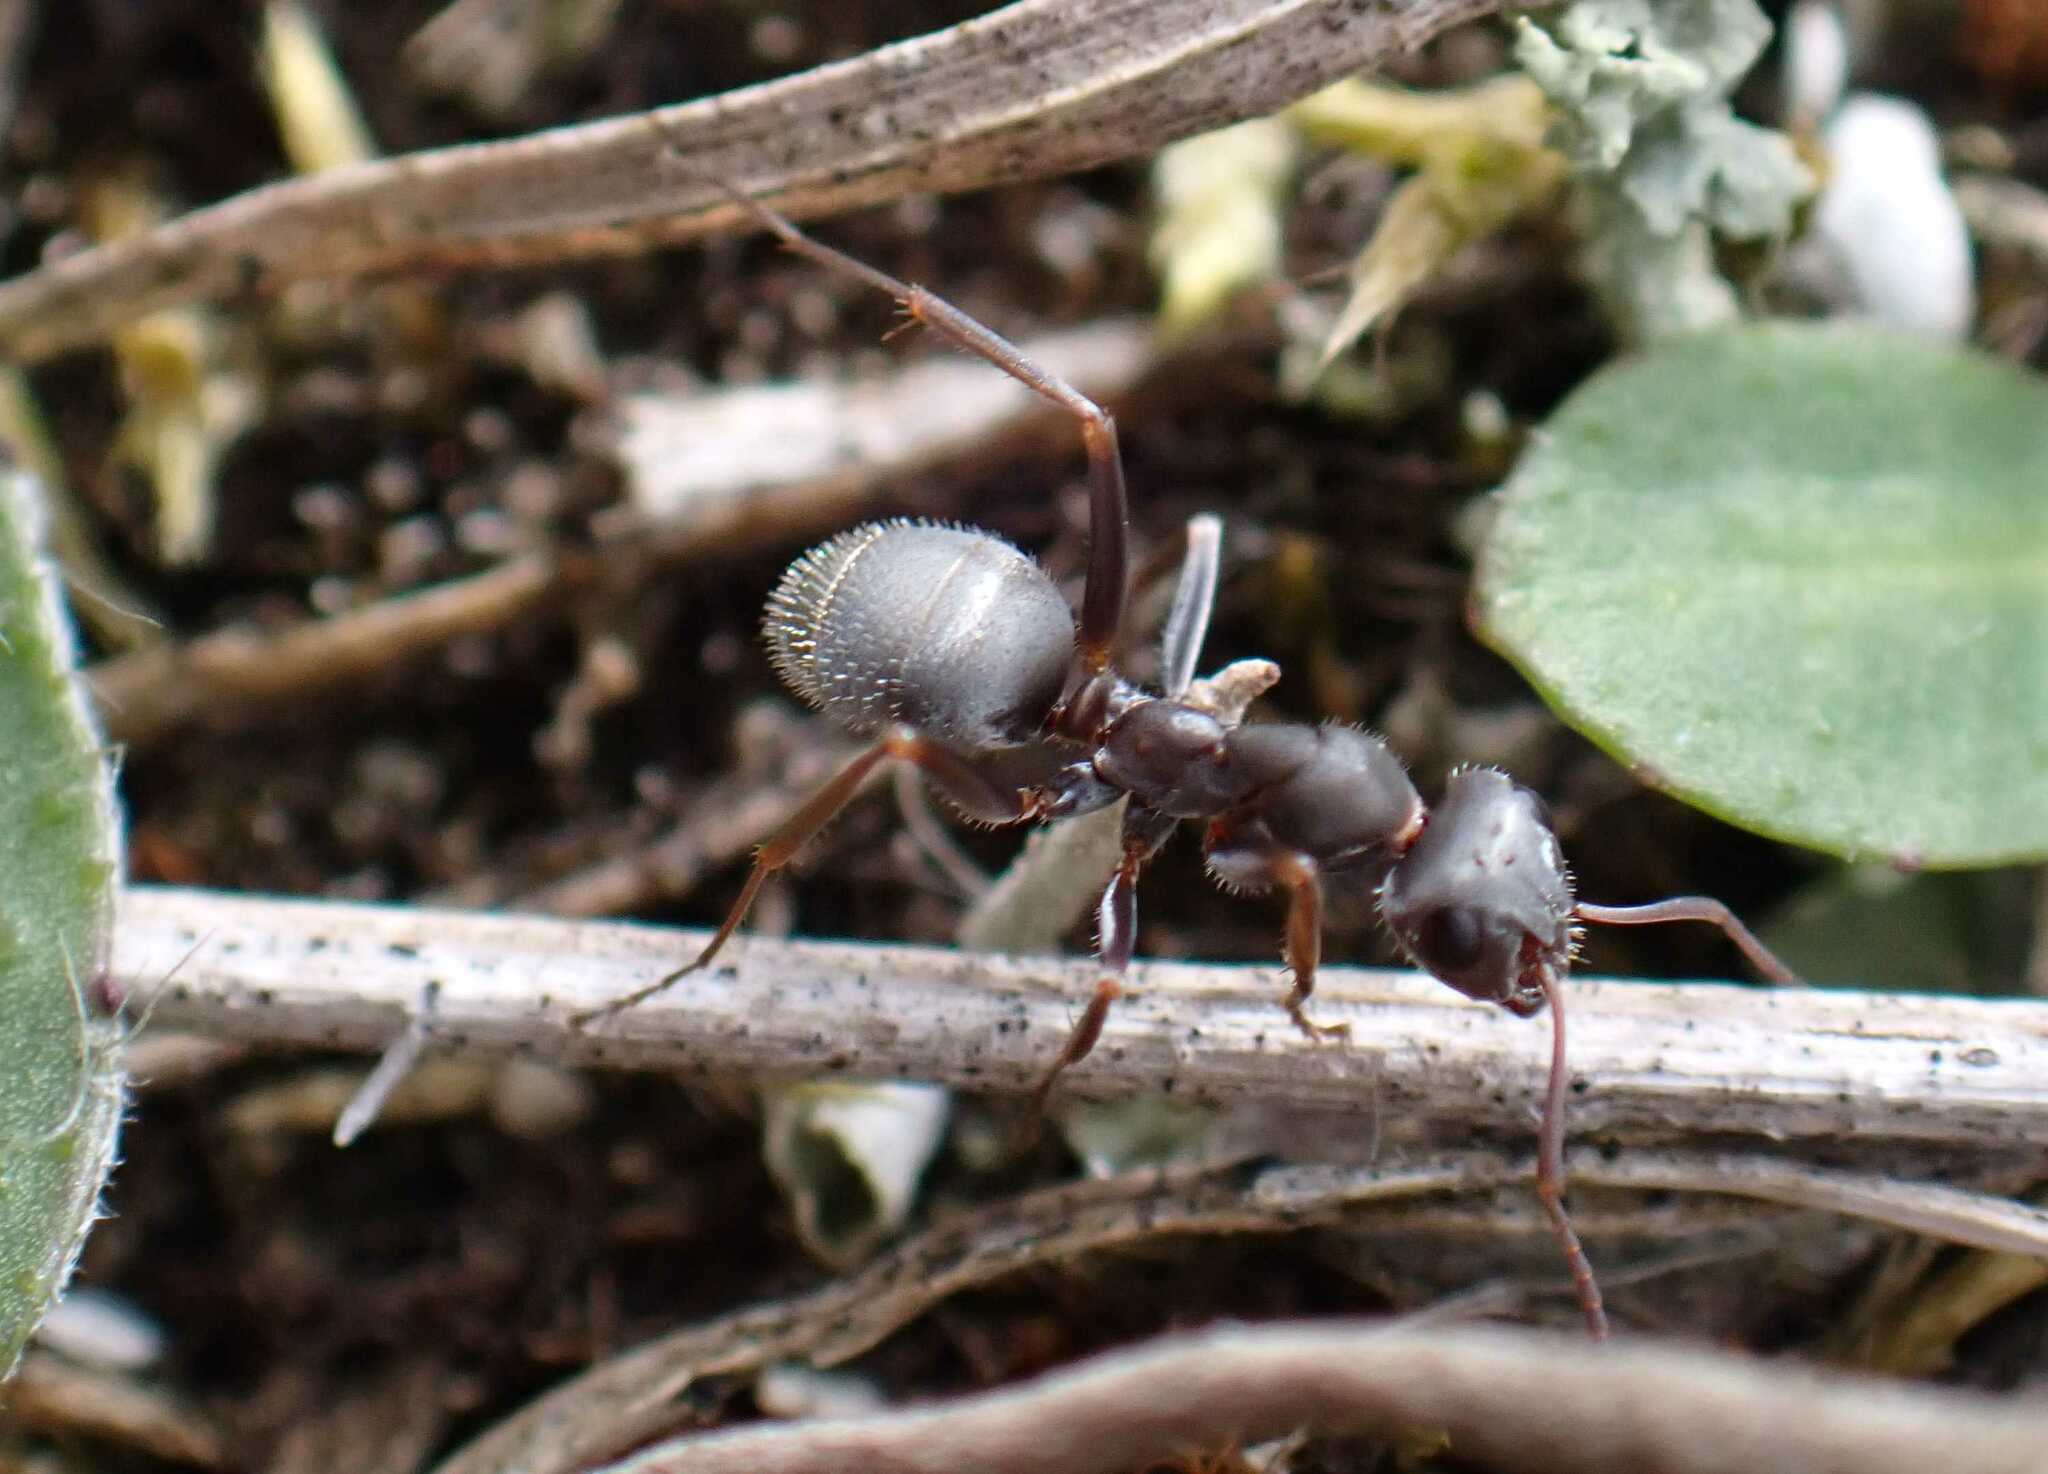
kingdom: Animalia
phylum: Arthropoda
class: Insecta
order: Hymenoptera
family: Formicidae
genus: Formica
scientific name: Formica cinerea
